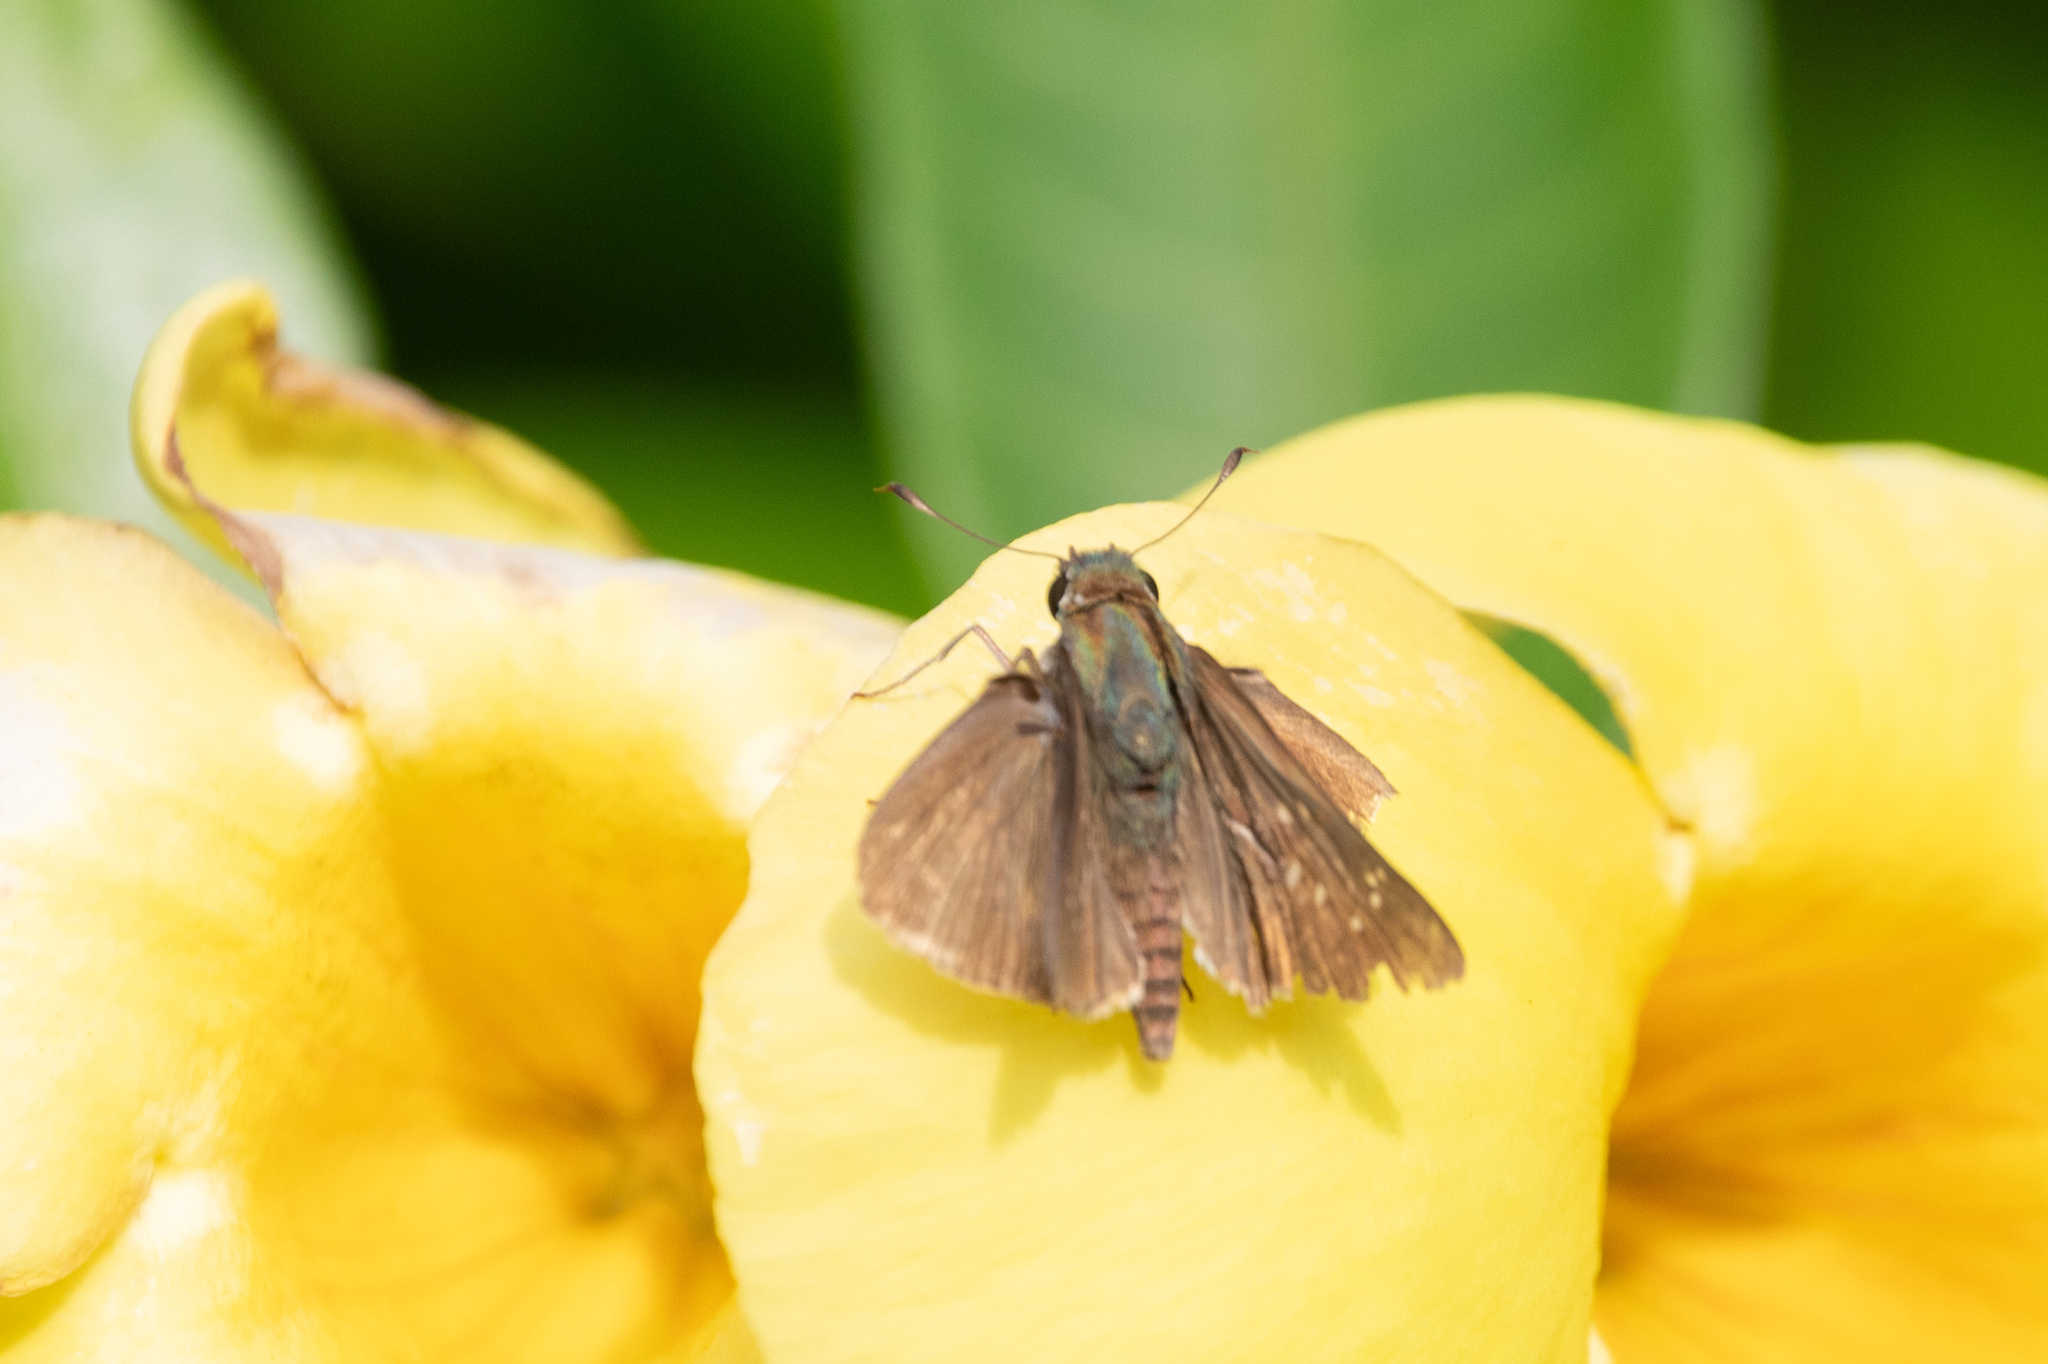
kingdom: Animalia
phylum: Arthropoda
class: Insecta
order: Lepidoptera
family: Hesperiidae
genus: Pelopidas
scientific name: Pelopidas mathias
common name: Black-branded swift
